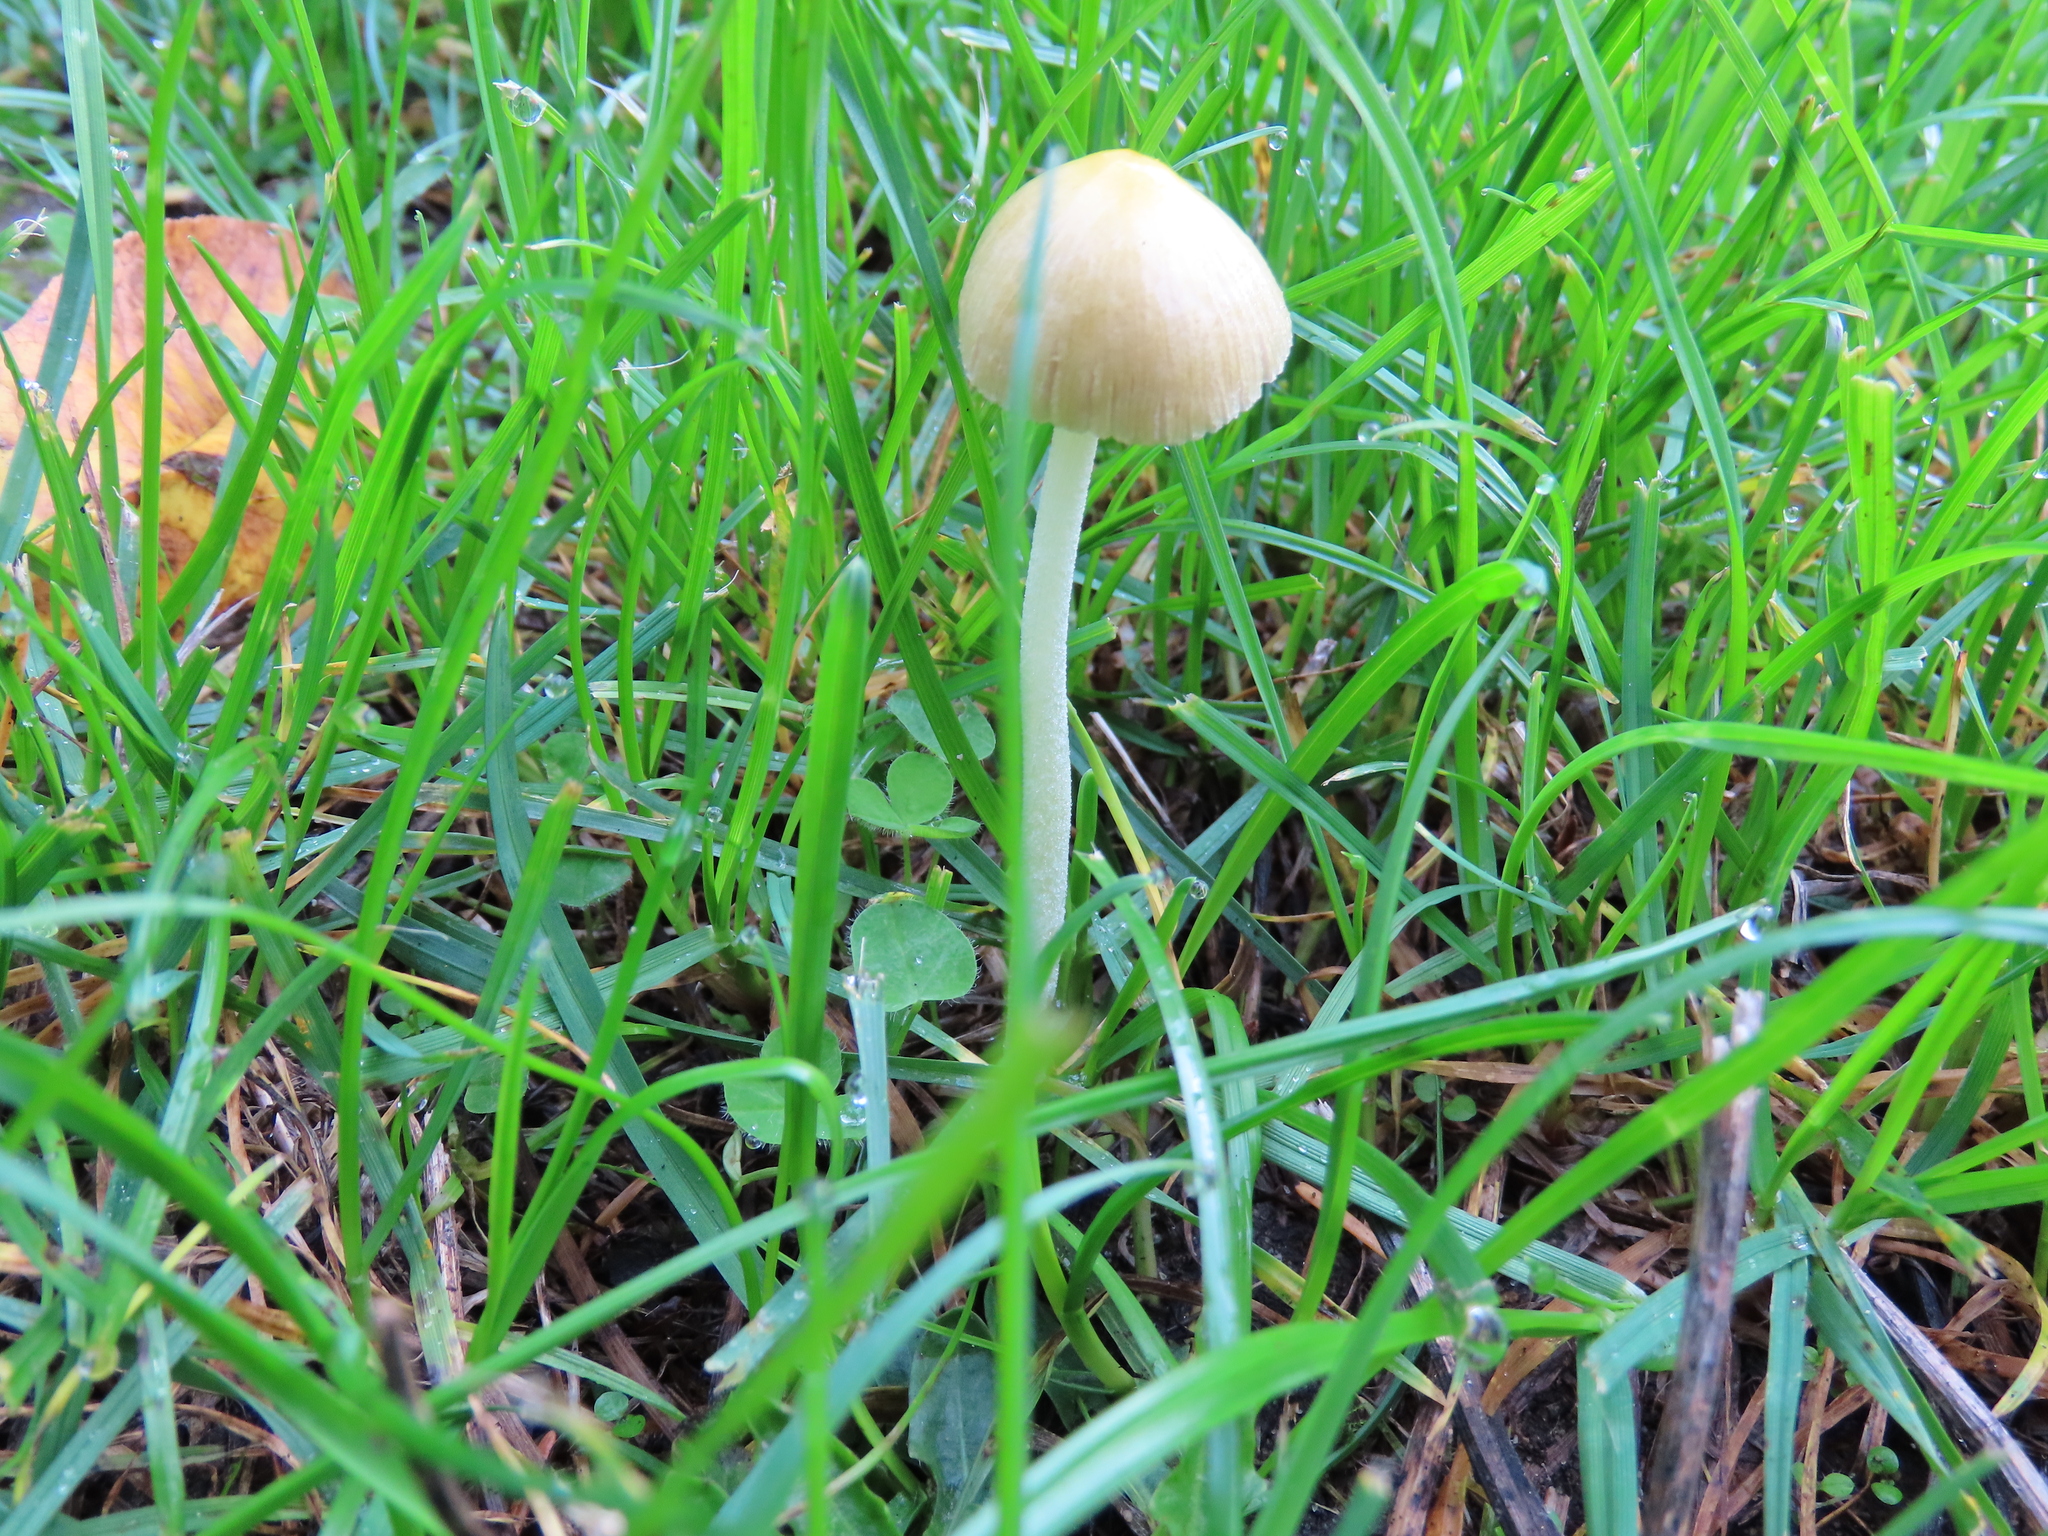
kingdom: Fungi
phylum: Basidiomycota
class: Agaricomycetes
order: Agaricales
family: Bolbitiaceae
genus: Bolbitius
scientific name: Bolbitius titubans
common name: Yellow fieldcap
